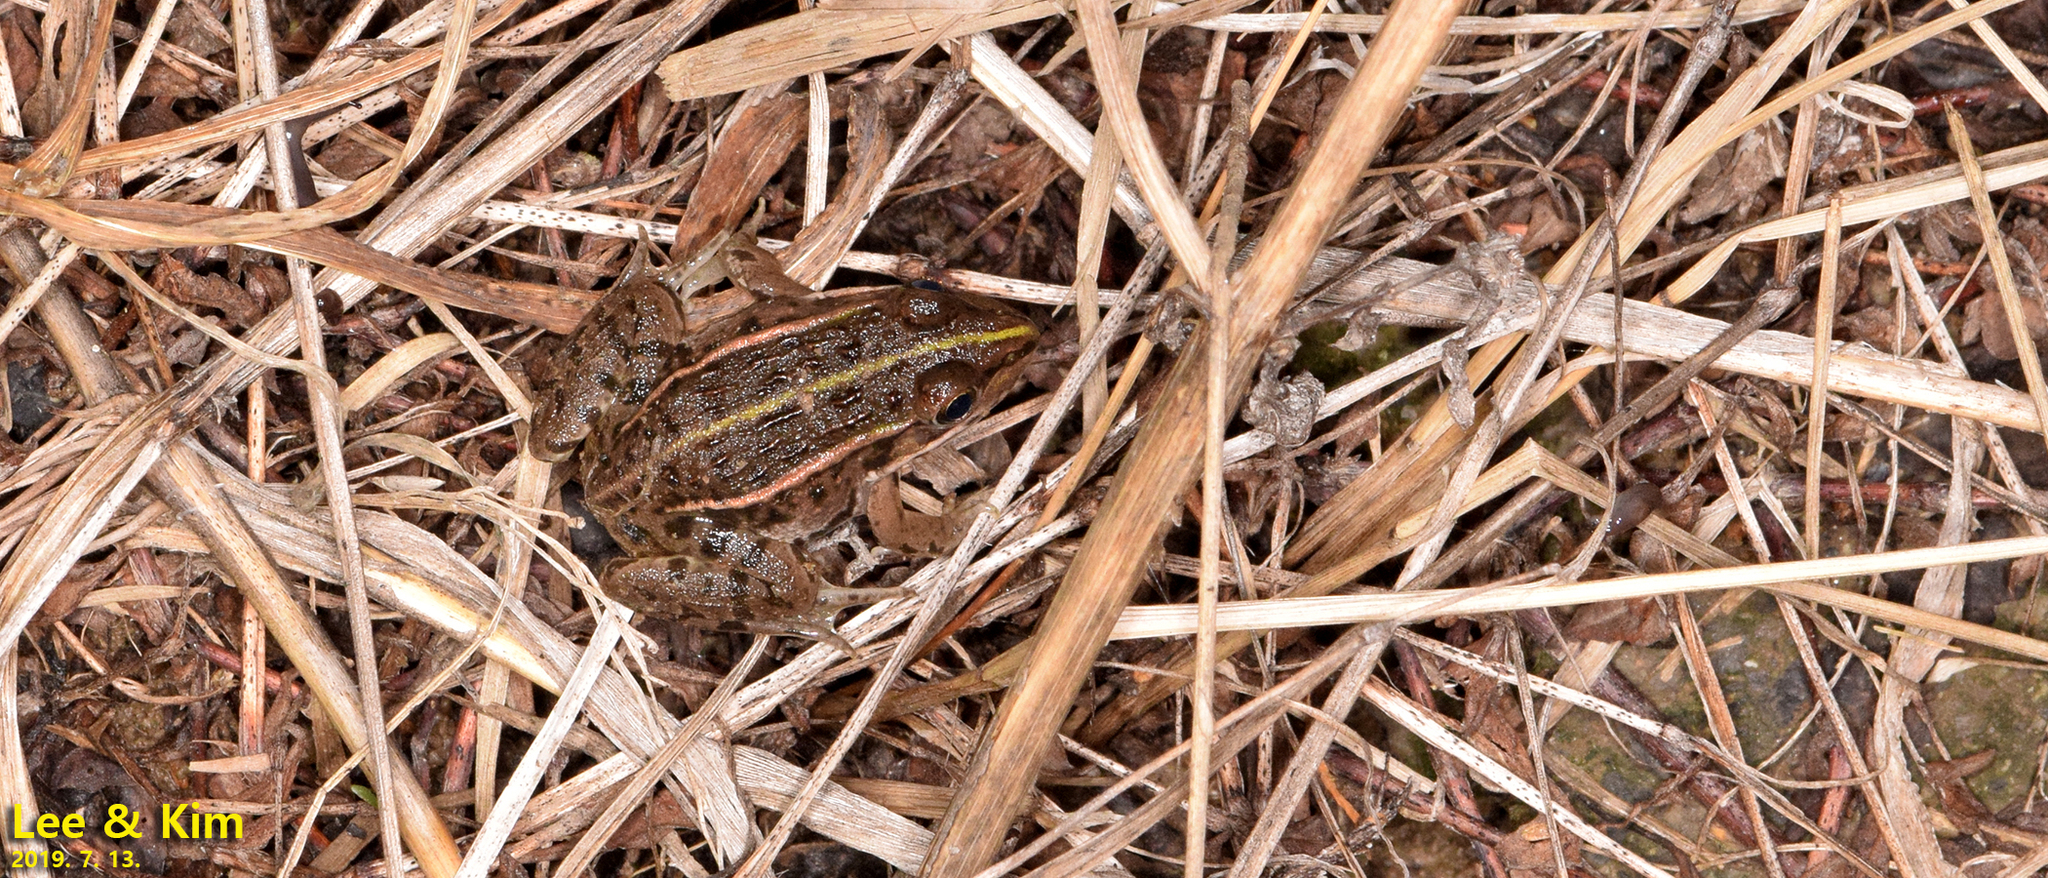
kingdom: Animalia
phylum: Chordata
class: Amphibia
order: Anura
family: Ranidae
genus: Pelophylax
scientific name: Pelophylax nigromaculatus
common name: Black-spotted pond frog
